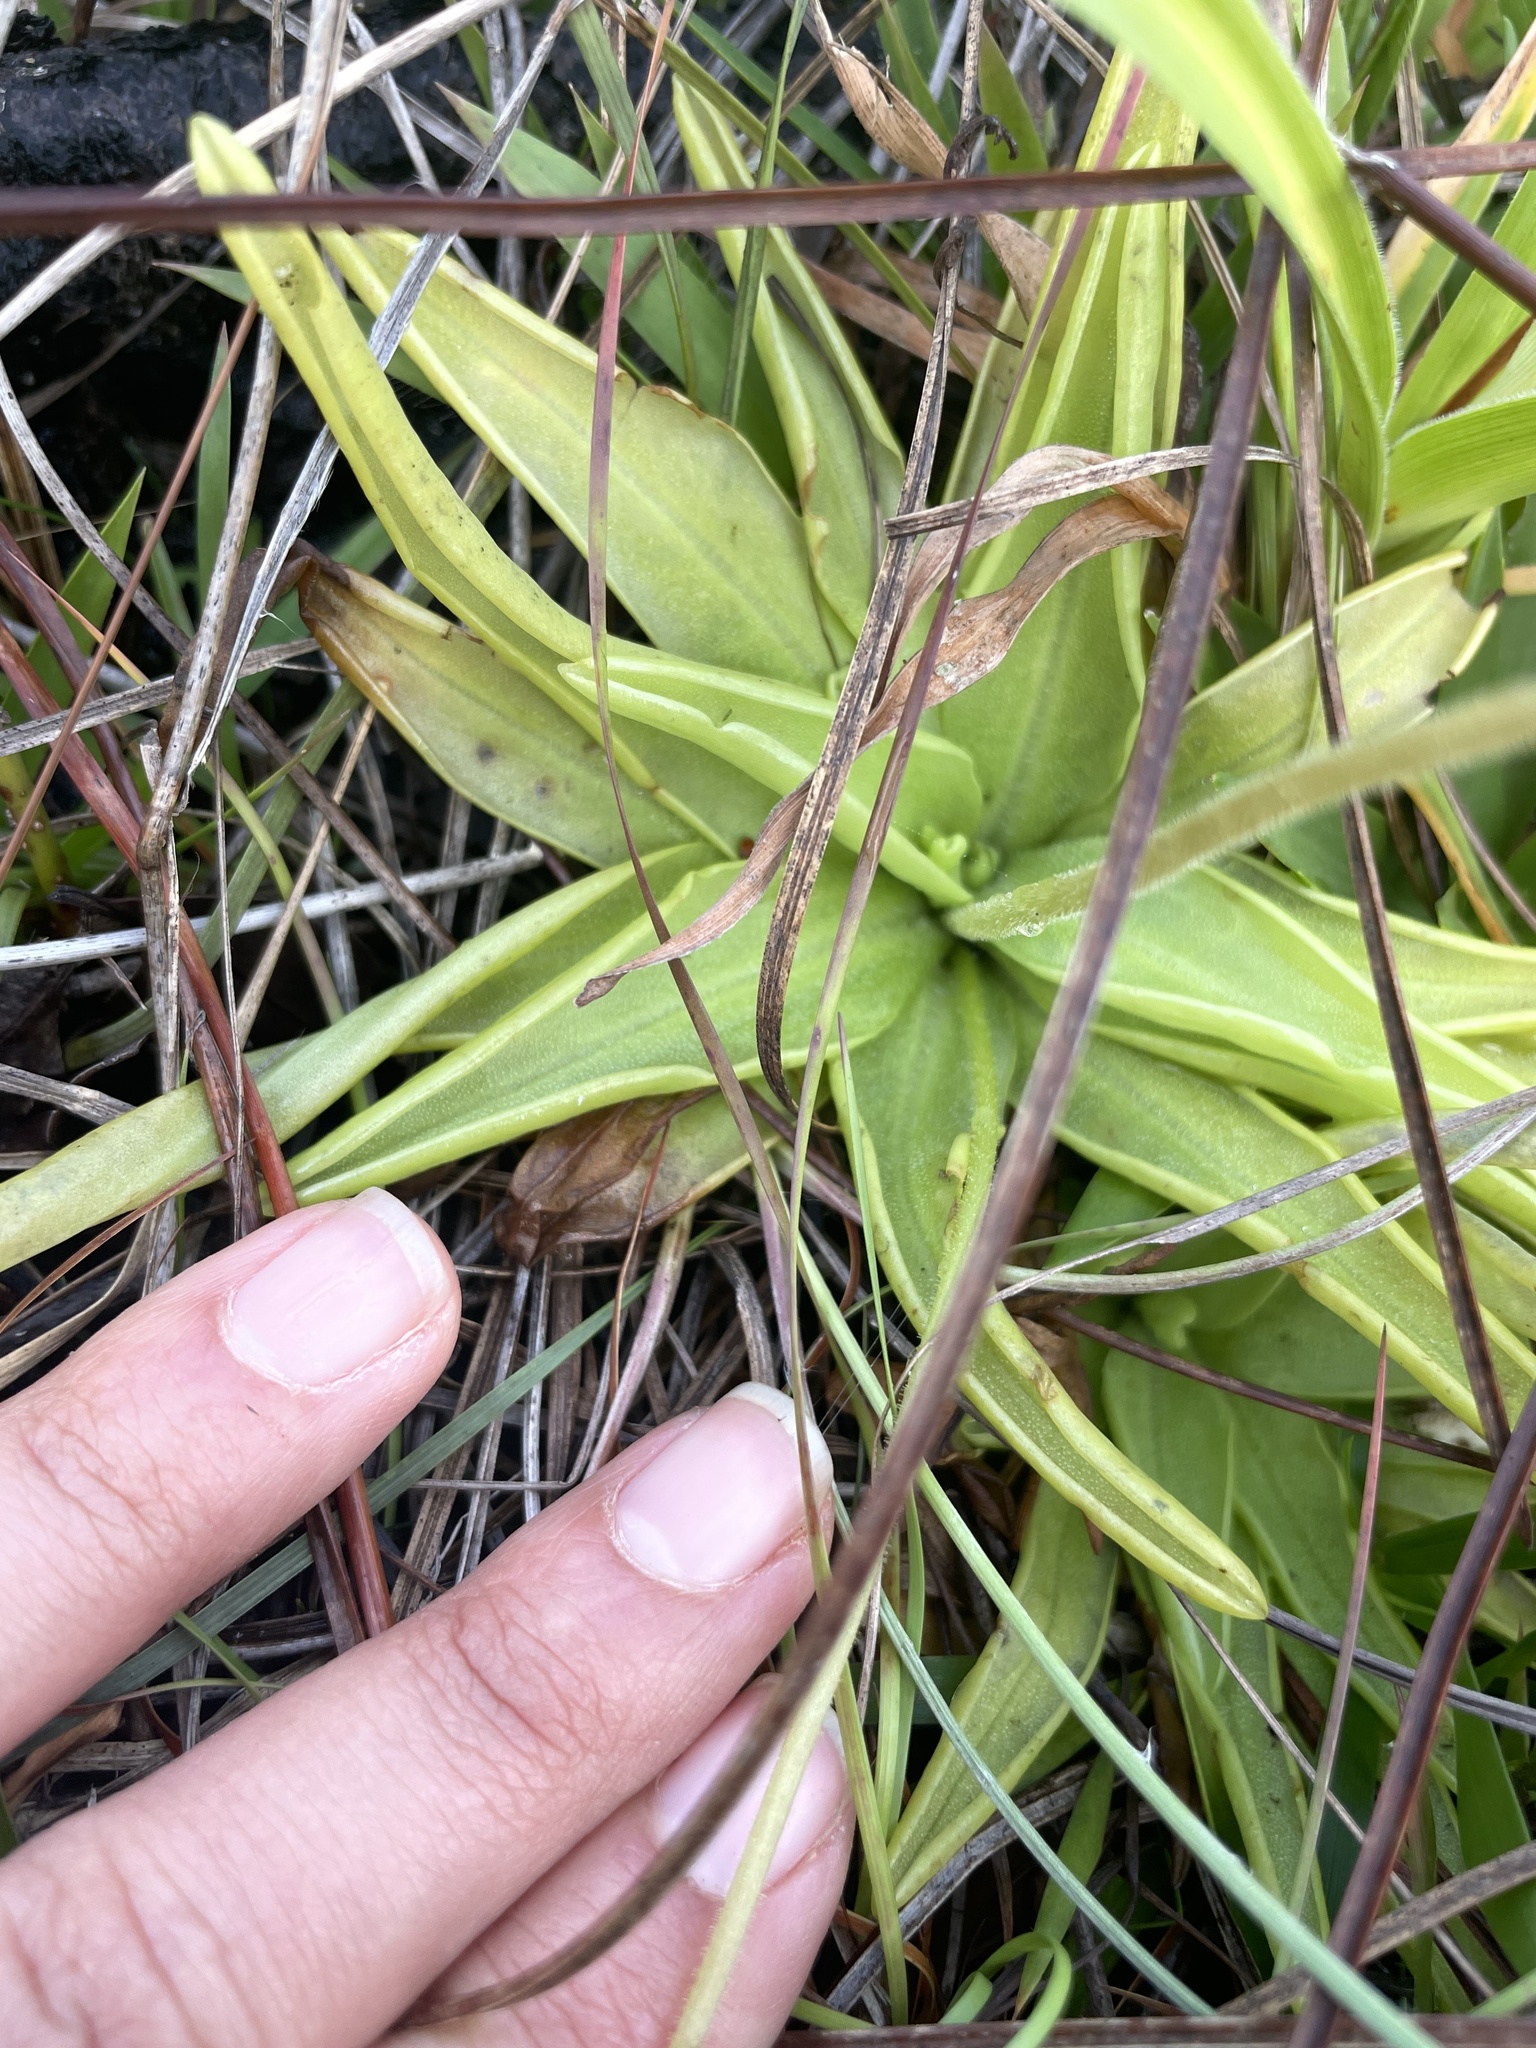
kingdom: Plantae
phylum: Tracheophyta
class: Magnoliopsida
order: Lamiales
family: Lentibulariaceae
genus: Pinguicula
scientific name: Pinguicula lutea
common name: Yellow butterwort
